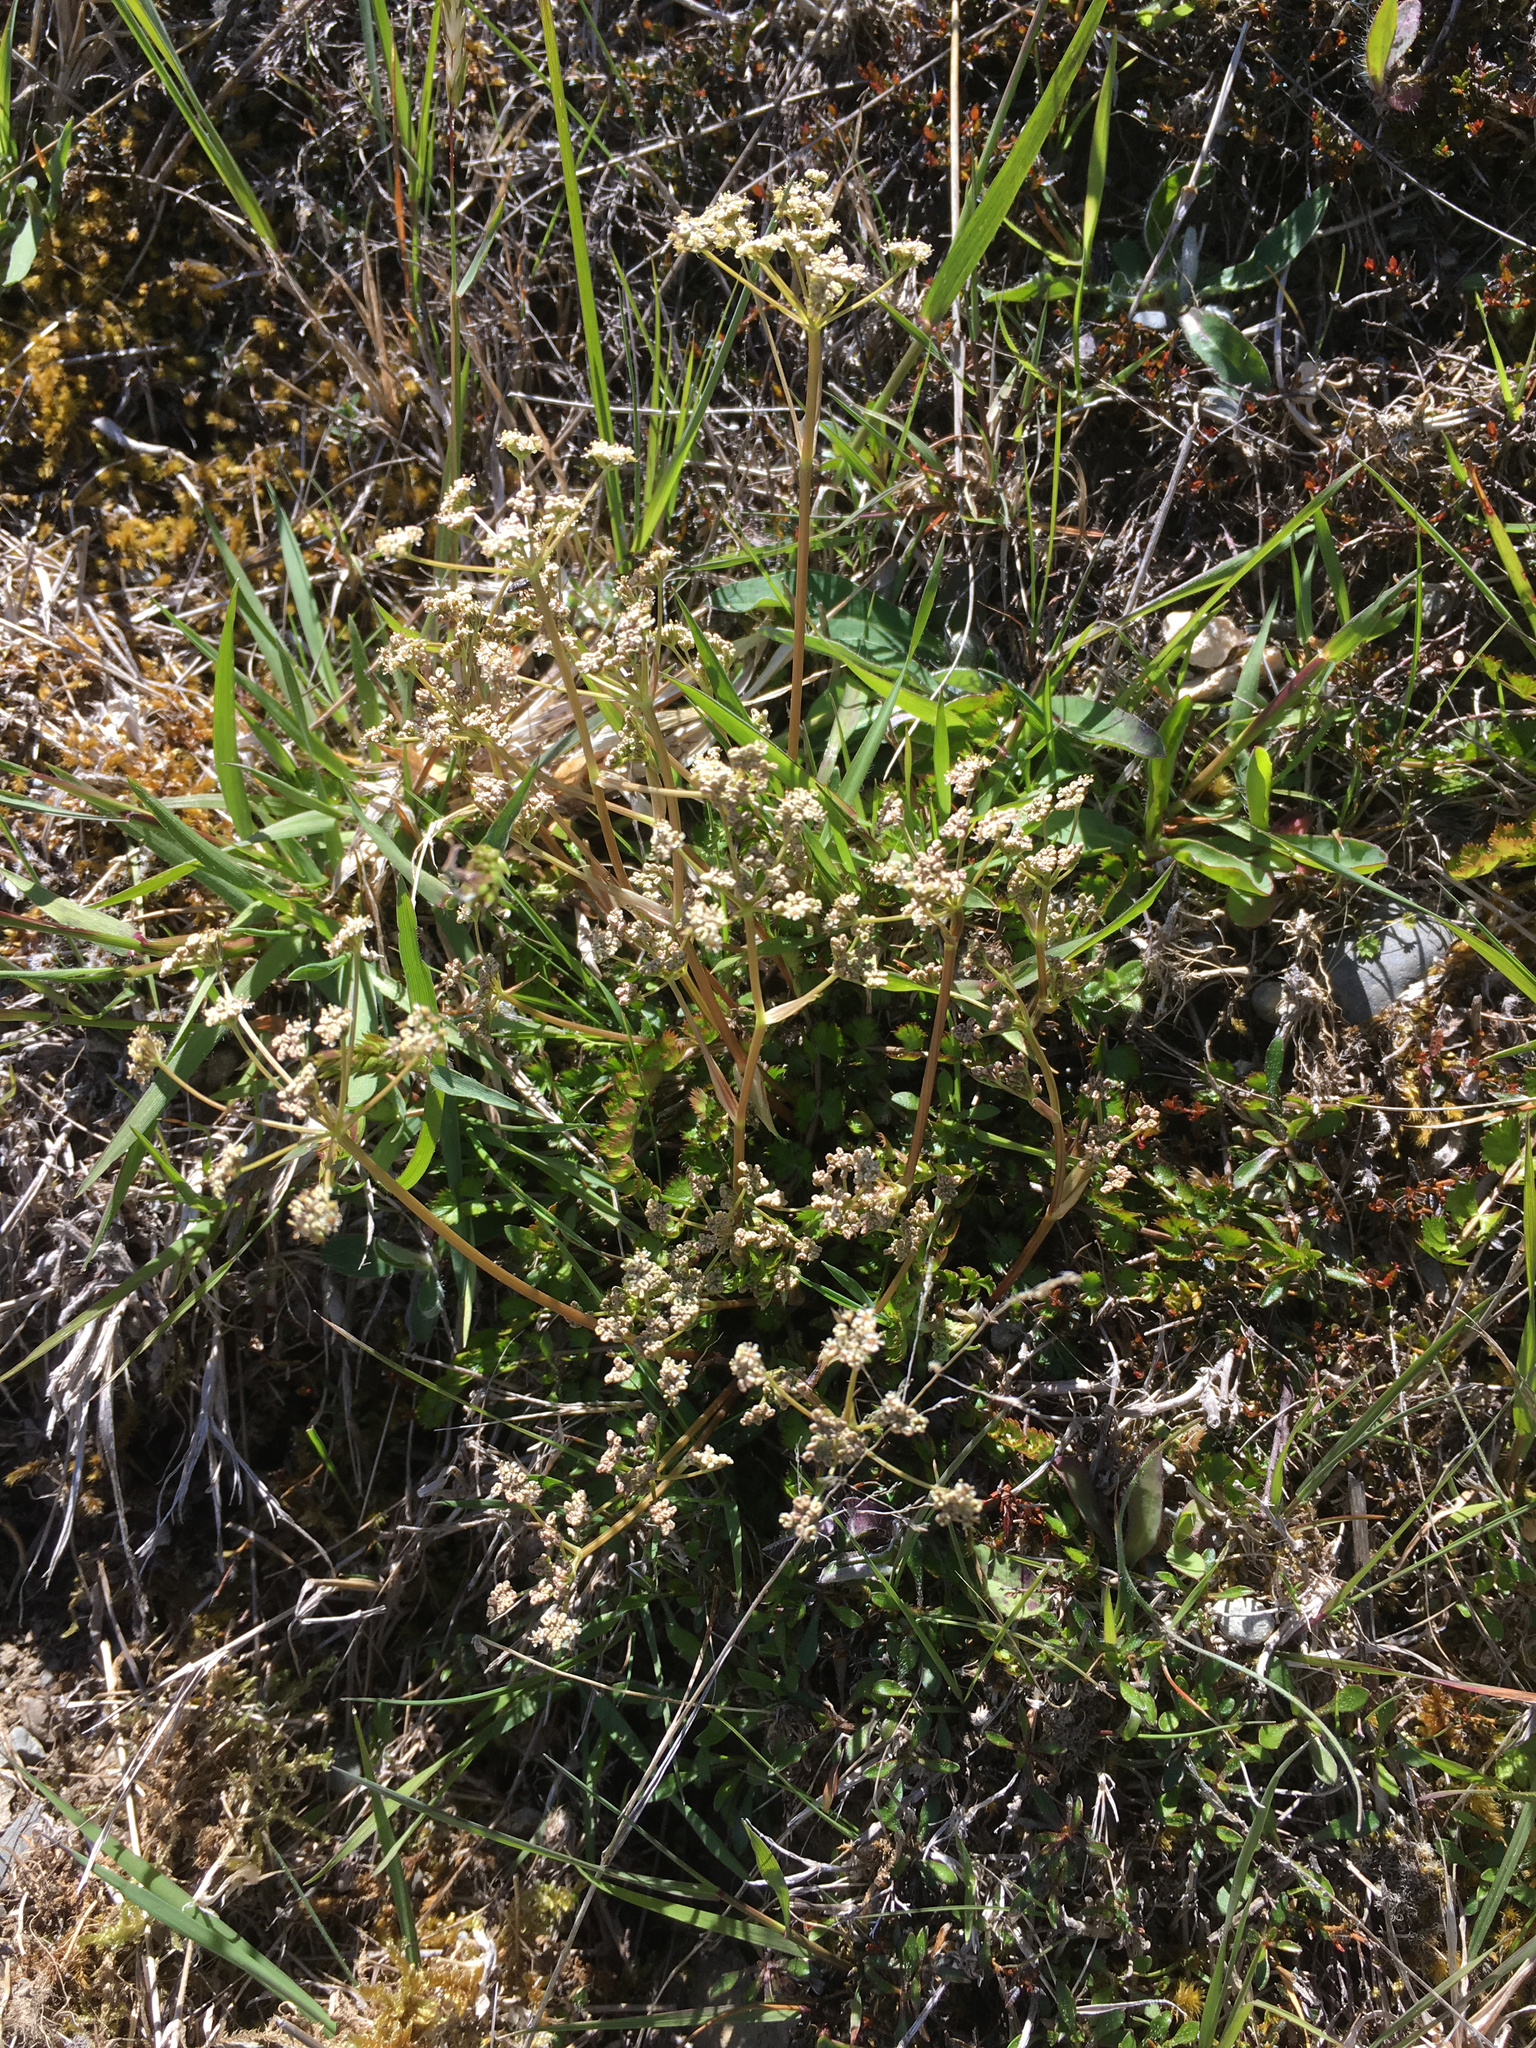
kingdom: Plantae
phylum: Tracheophyta
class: Magnoliopsida
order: Apiales
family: Apiaceae
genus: Anisotome
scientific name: Anisotome aromatica
